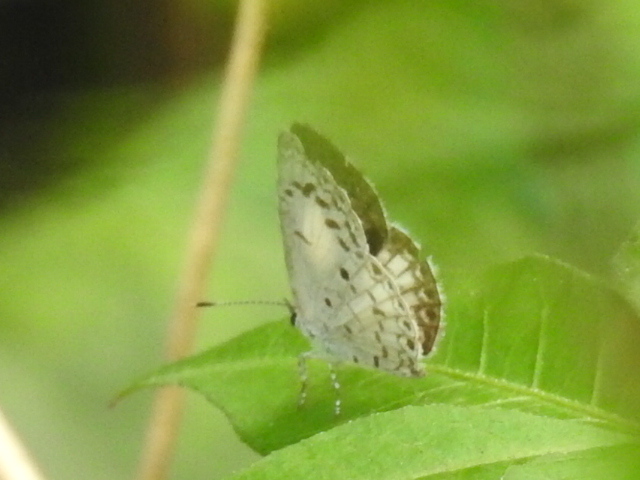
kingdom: Animalia
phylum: Arthropoda
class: Insecta
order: Lepidoptera
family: Lycaenidae
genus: Acytolepis
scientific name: Acytolepis puspa
